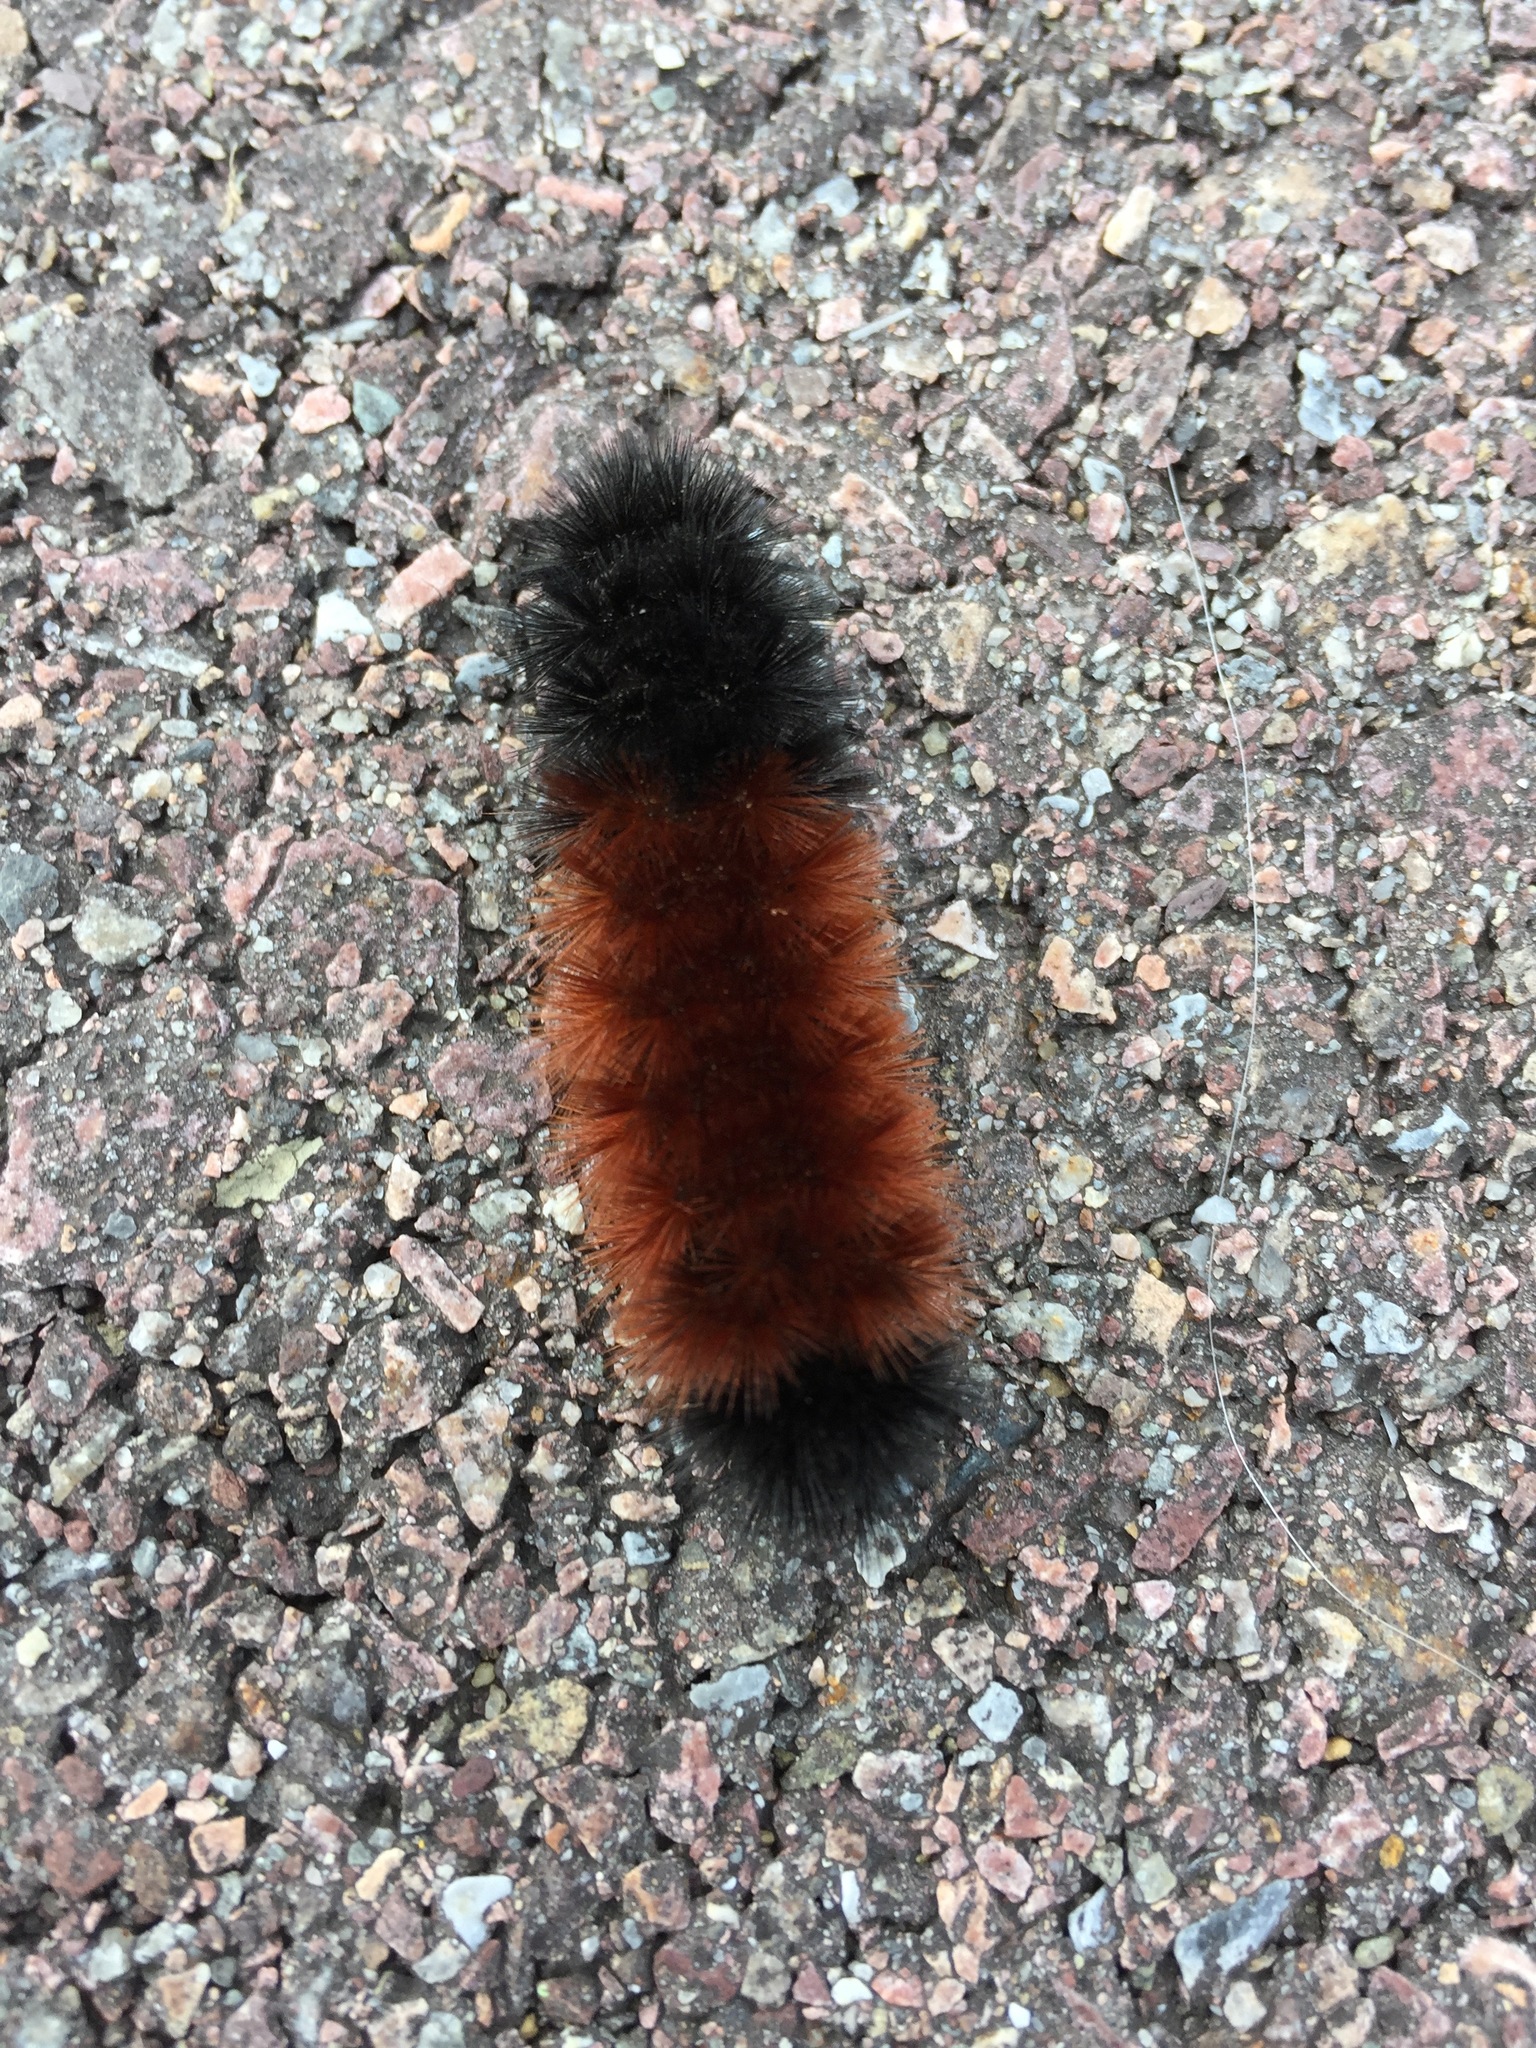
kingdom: Animalia
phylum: Arthropoda
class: Insecta
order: Lepidoptera
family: Erebidae
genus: Pyrrharctia
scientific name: Pyrrharctia isabella
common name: Isabella tiger moth
